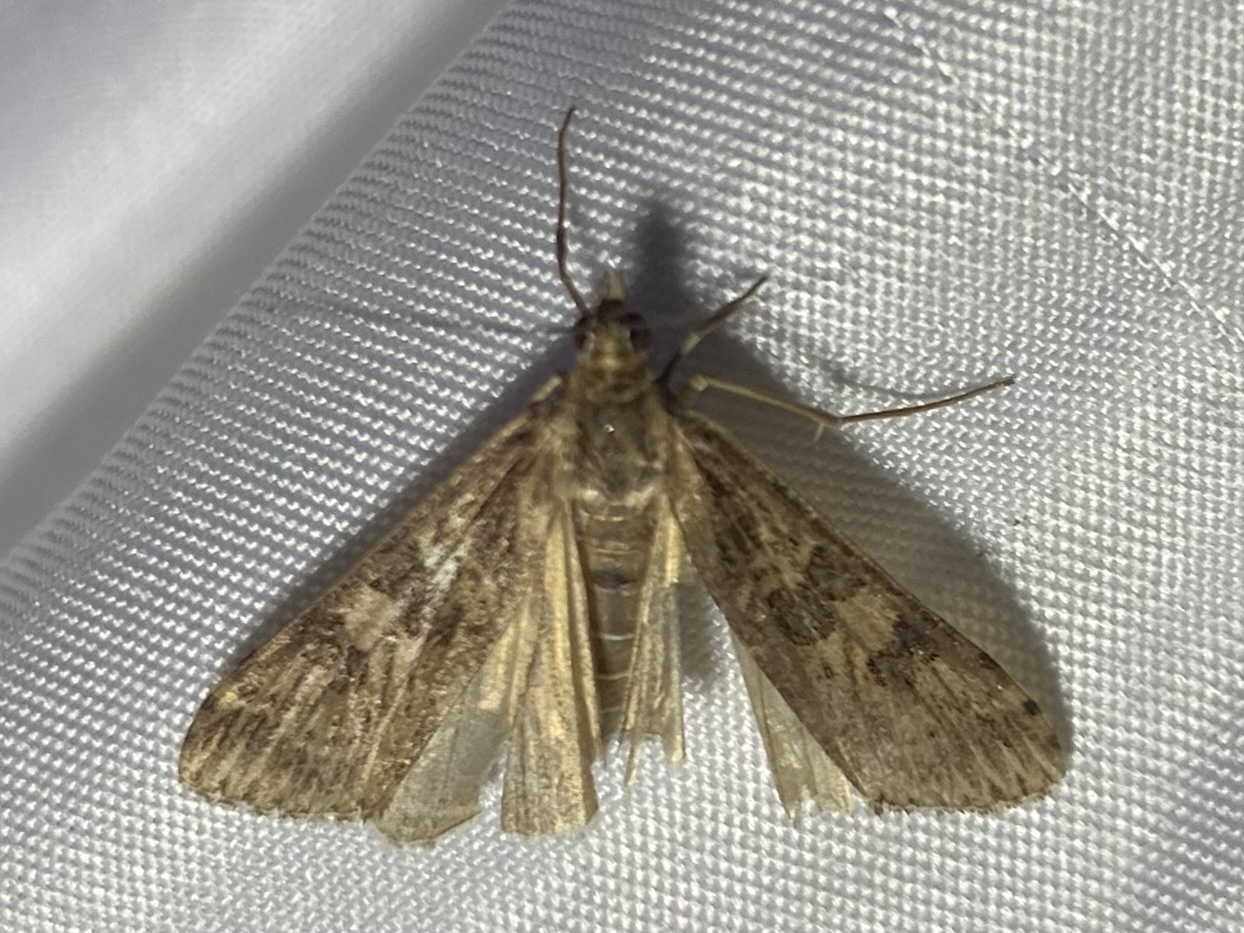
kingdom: Animalia
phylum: Arthropoda
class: Insecta
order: Lepidoptera
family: Crambidae
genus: Nomophila
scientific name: Nomophila nearctica
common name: American rush veneer
